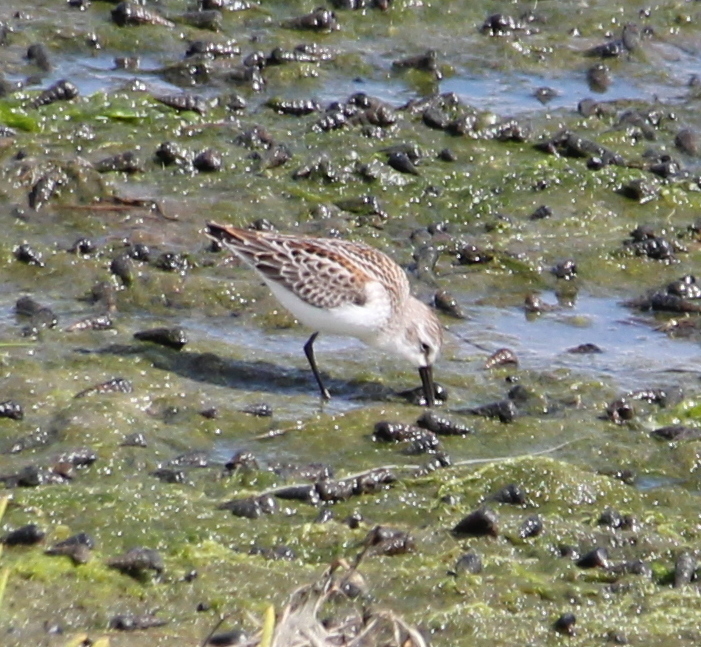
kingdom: Animalia
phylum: Chordata
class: Aves
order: Charadriiformes
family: Scolopacidae
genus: Calidris
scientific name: Calidris mauri
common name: Western sandpiper
